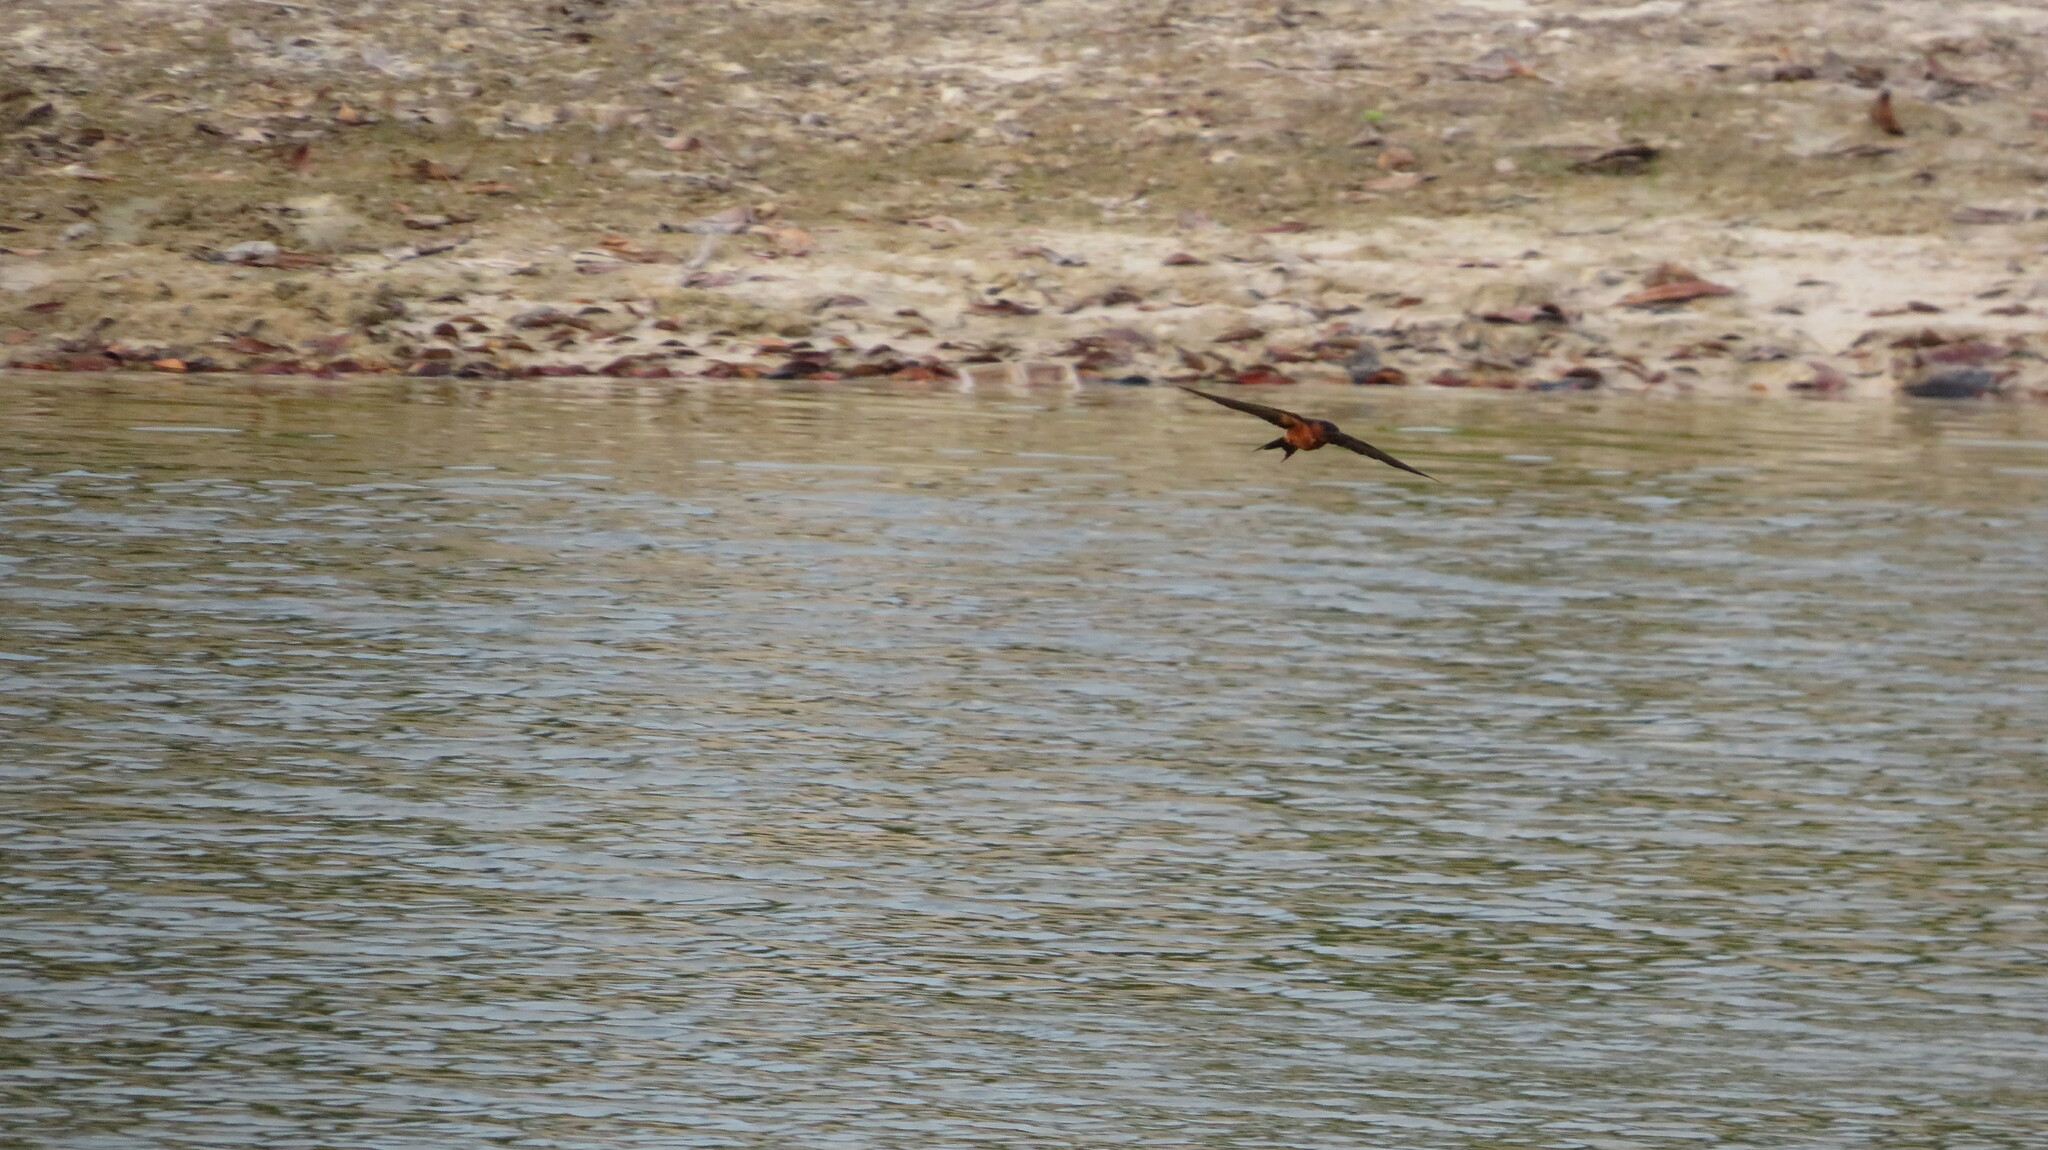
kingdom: Animalia
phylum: Chordata
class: Aves
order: Passeriformes
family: Hirundinidae
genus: Cecropis
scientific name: Cecropis badia
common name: Rufous-bellied swallow
